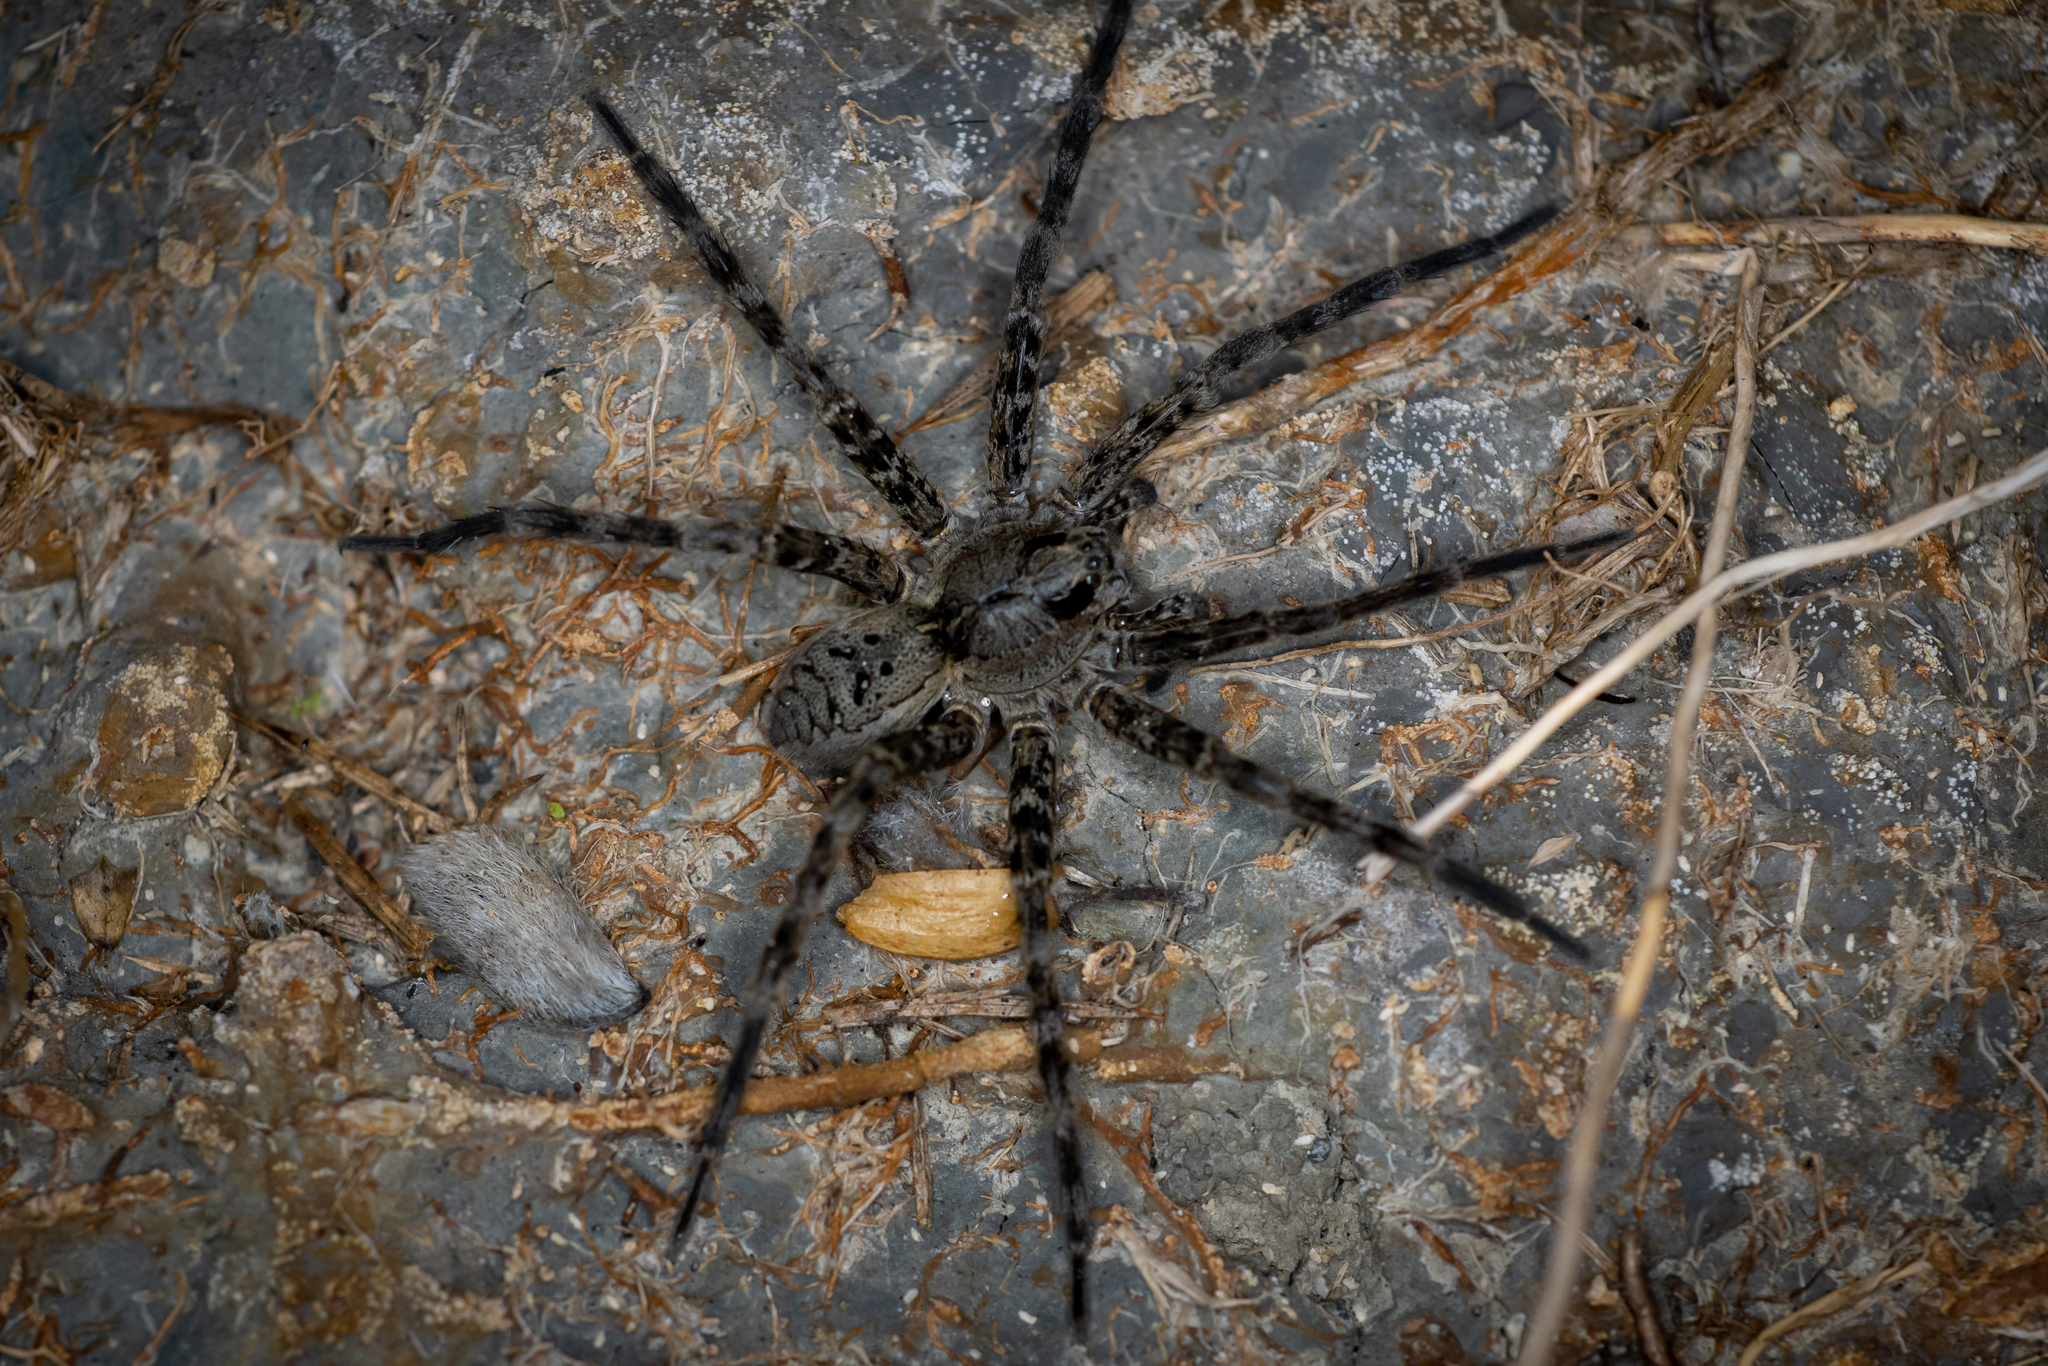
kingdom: Animalia
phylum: Arthropoda
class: Arachnida
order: Araneae
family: Pisauridae
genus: Dolomedes
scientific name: Dolomedes dondalei
